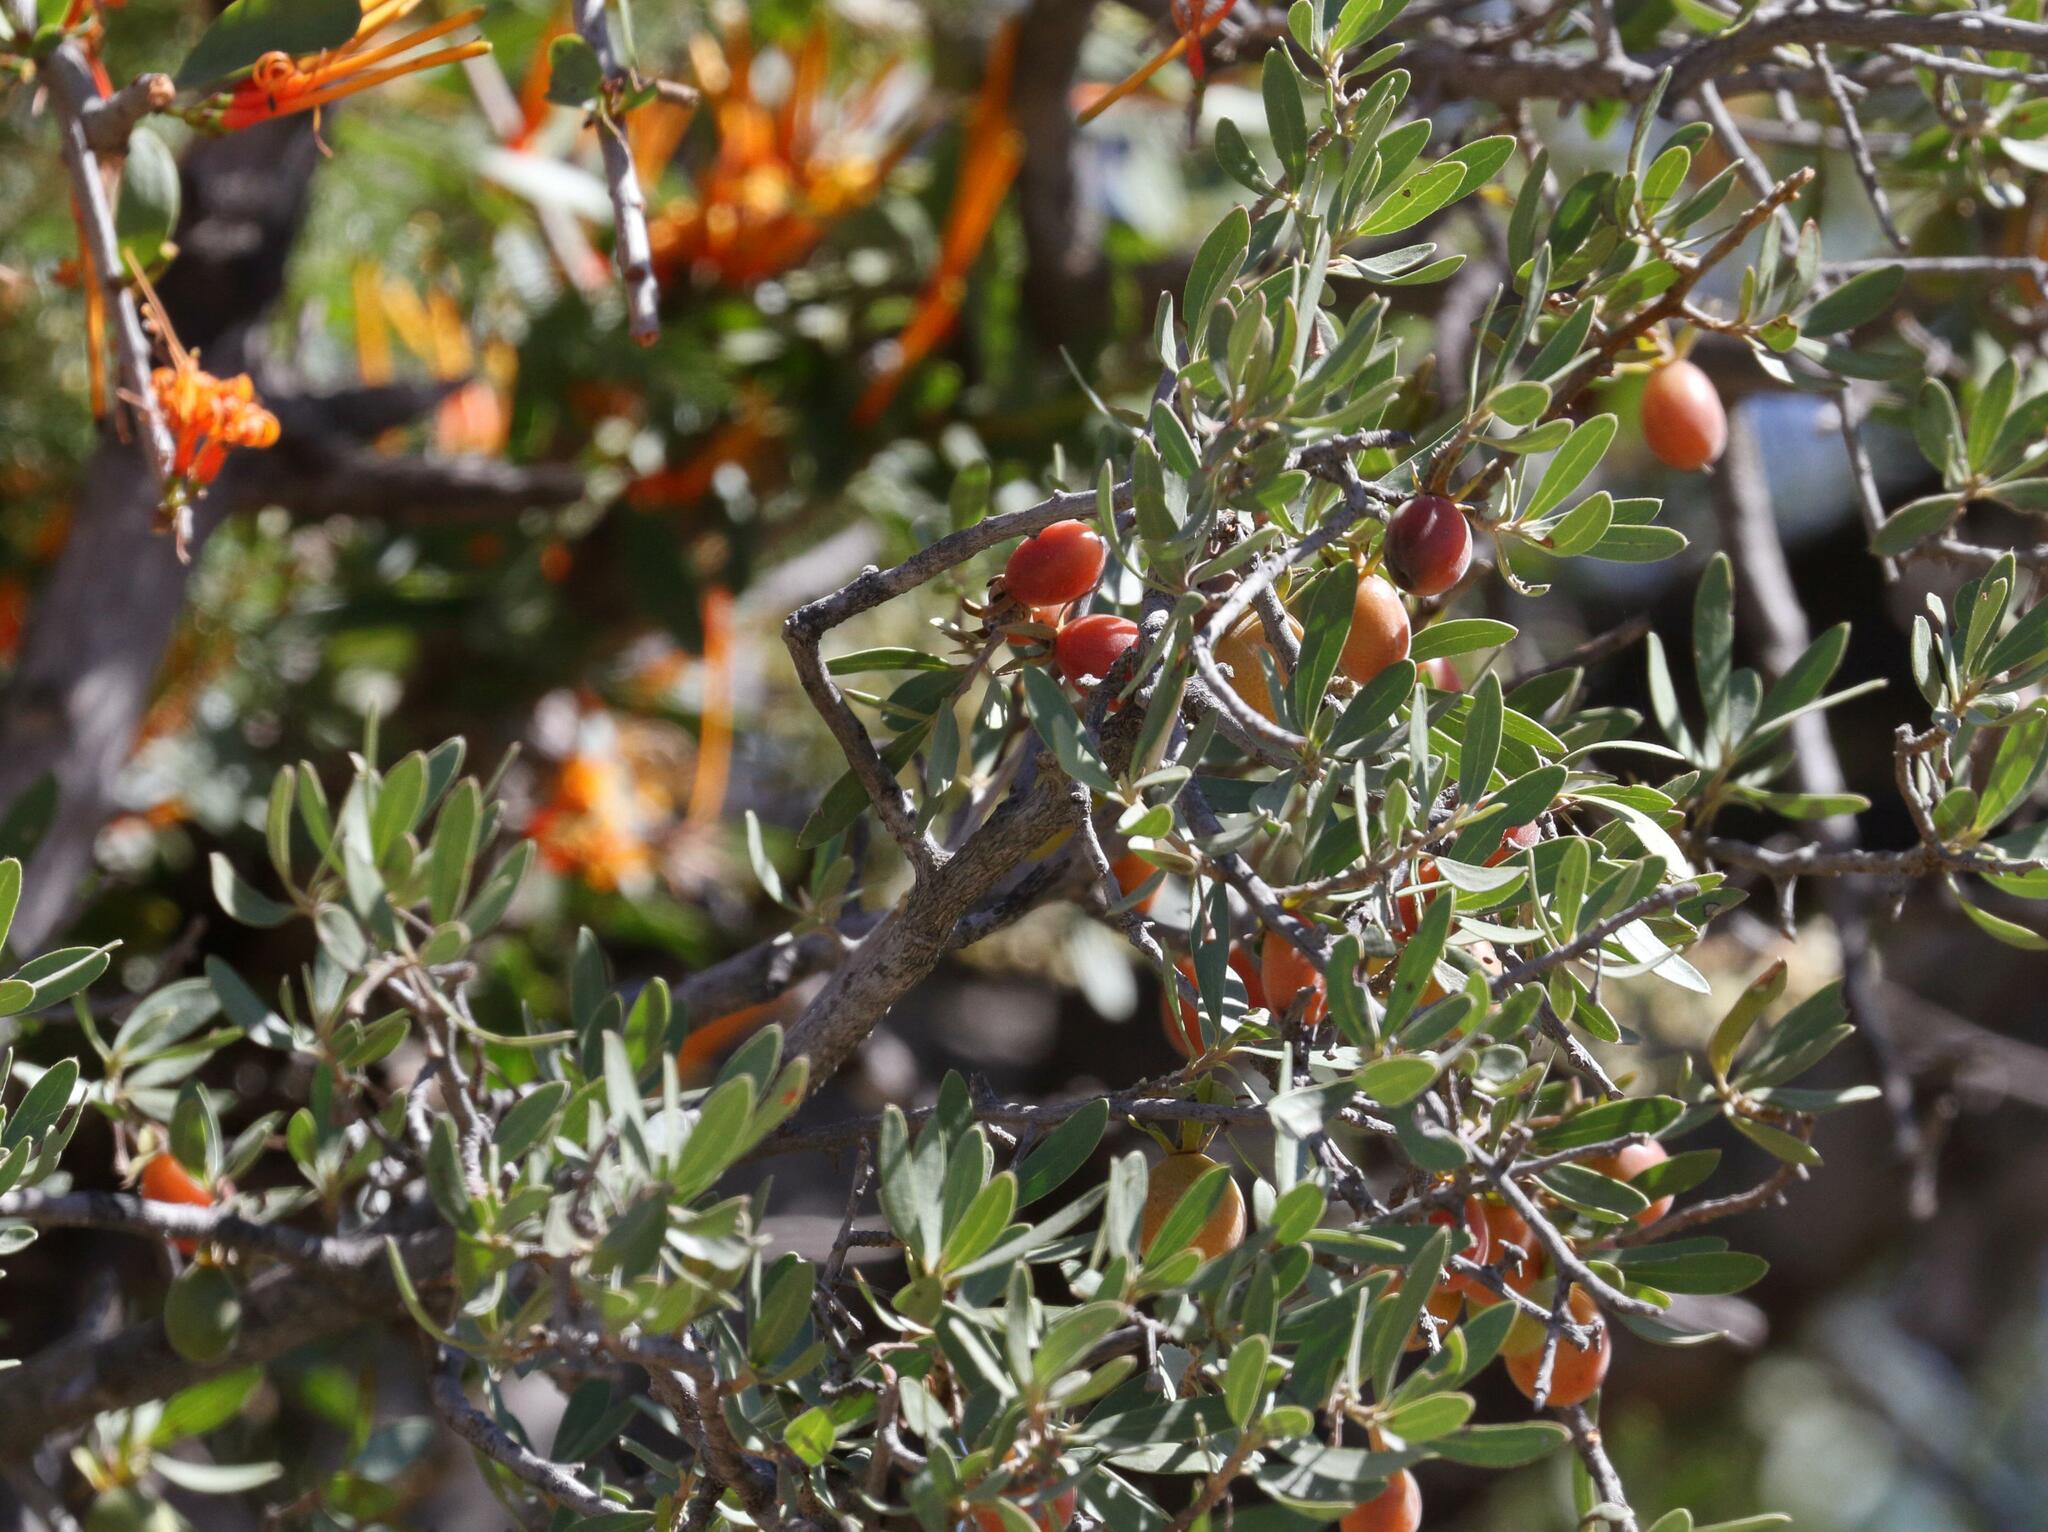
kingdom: Plantae
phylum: Tracheophyta
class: Magnoliopsida
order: Ericales
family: Ebenaceae
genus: Diospyros
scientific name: Diospyros lycioides
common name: Red star apple
